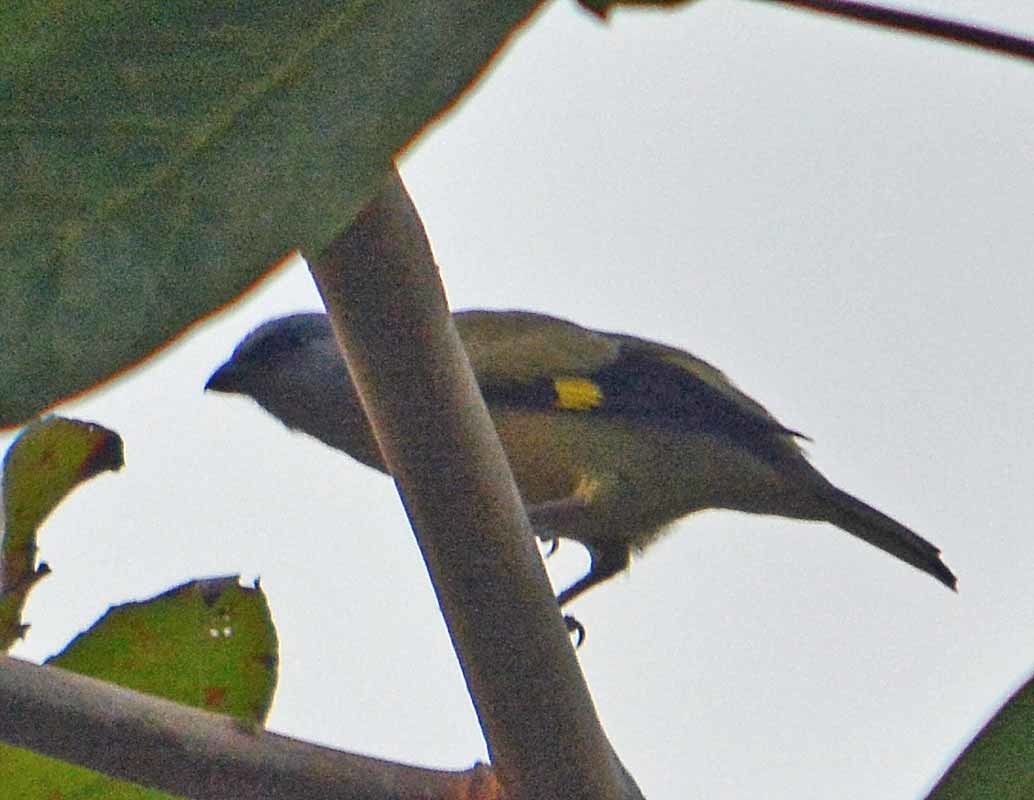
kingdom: Animalia
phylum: Chordata
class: Aves
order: Passeriformes
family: Thraupidae
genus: Thraupis
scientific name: Thraupis abbas
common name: Yellow-winged tanager
